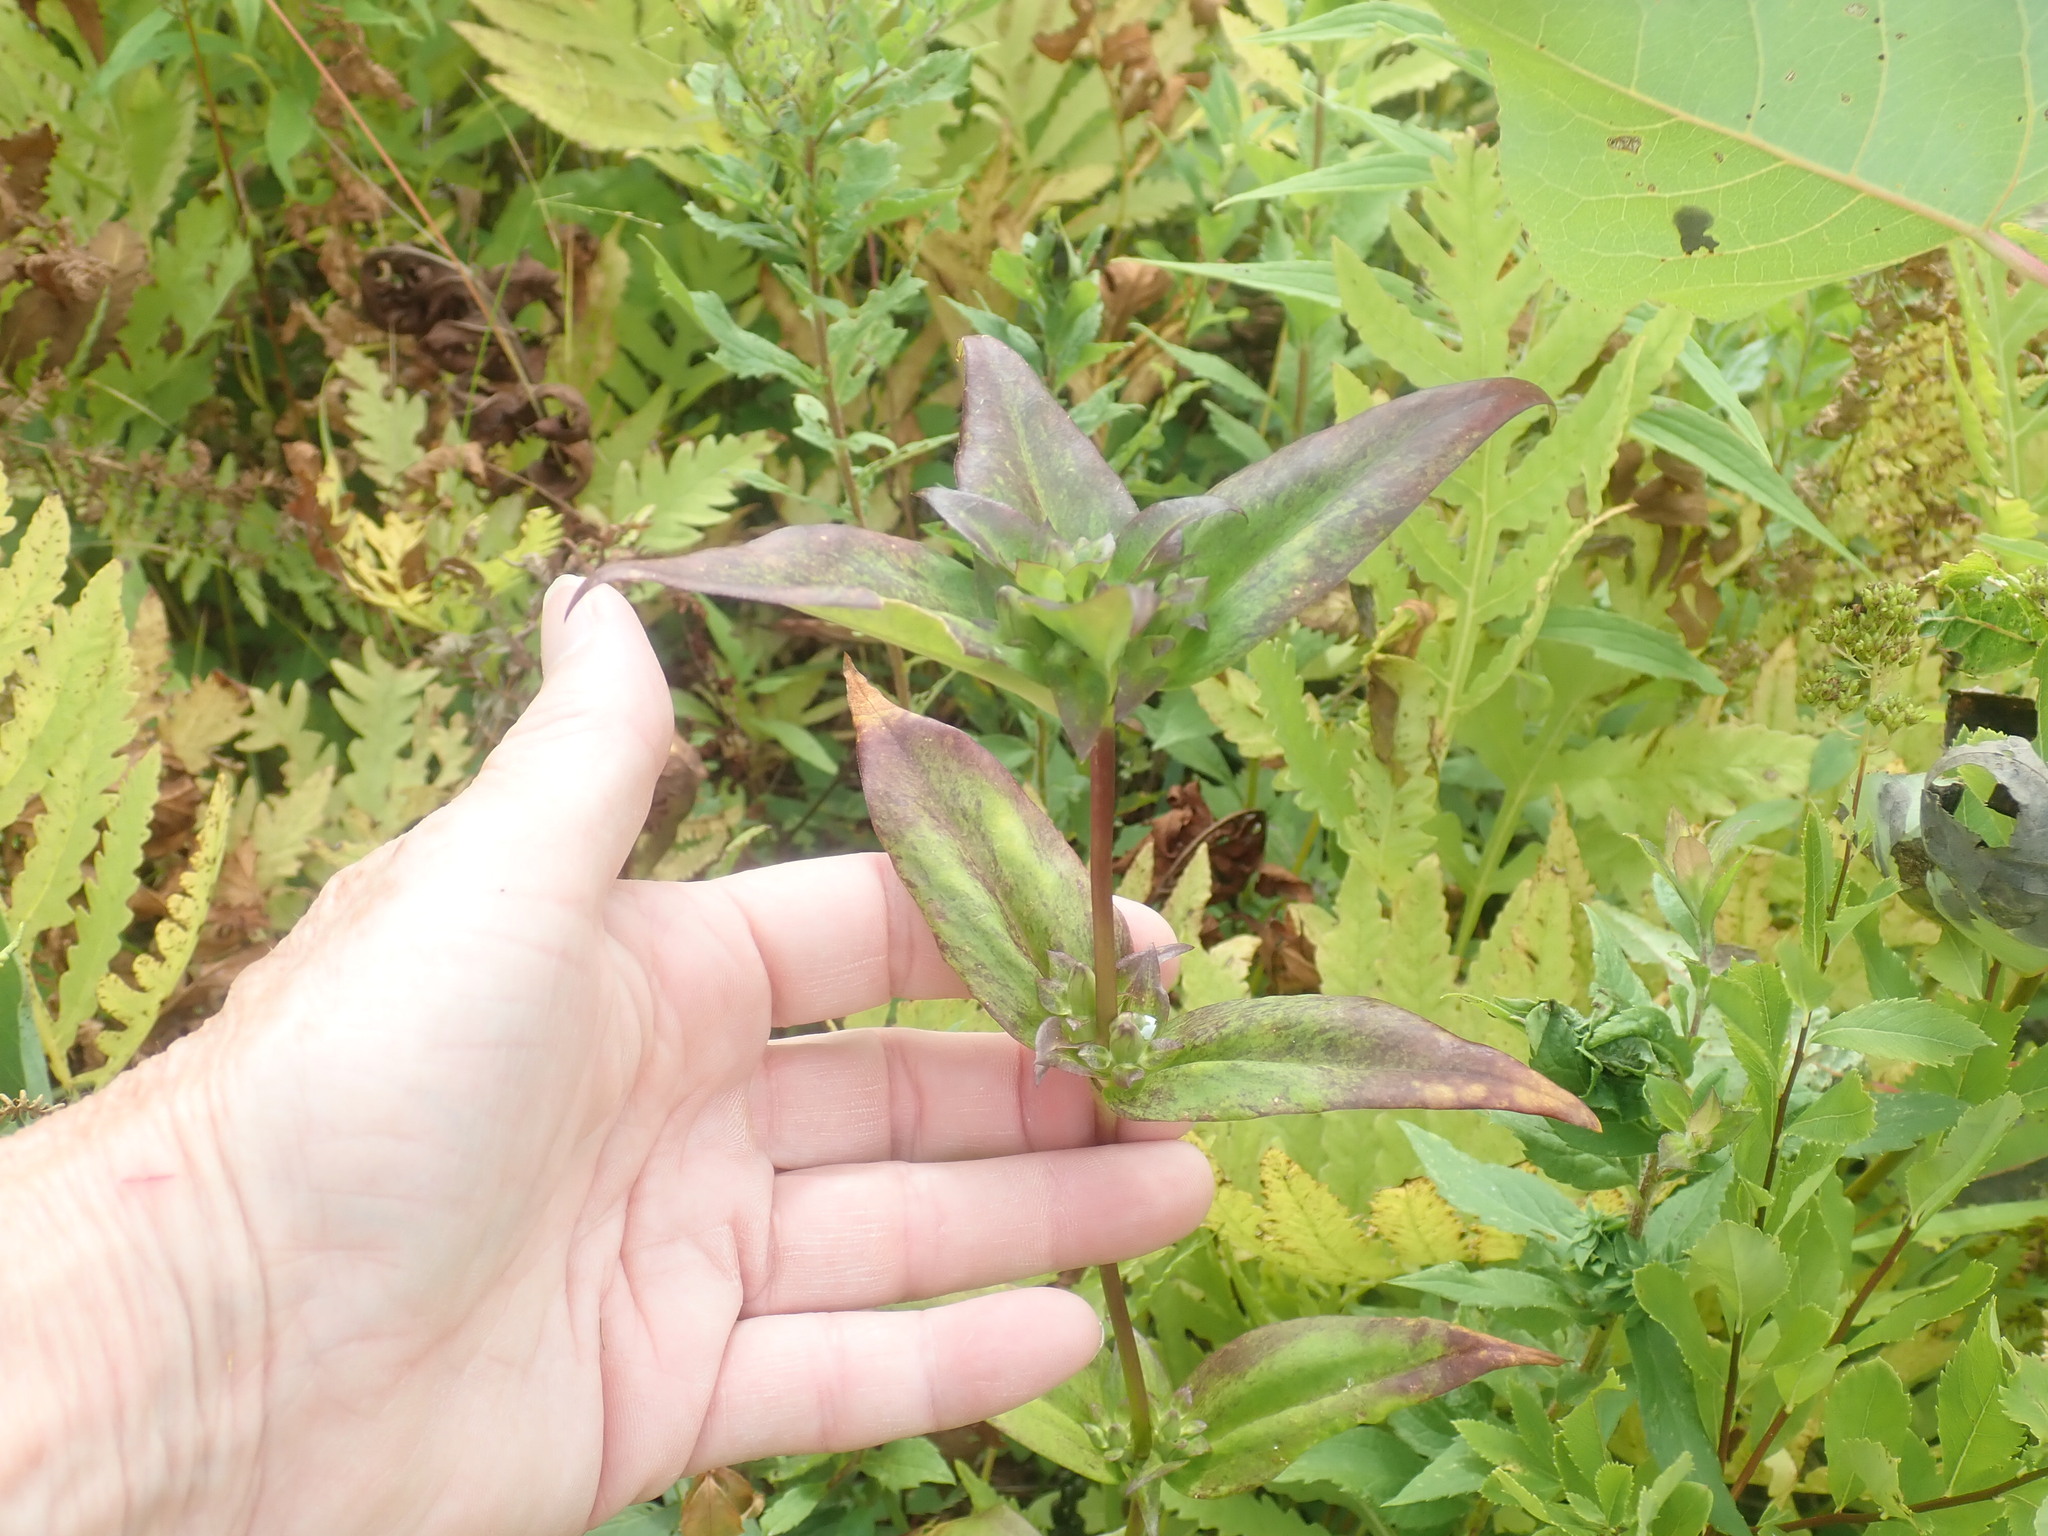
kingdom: Plantae
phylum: Tracheophyta
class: Magnoliopsida
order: Gentianales
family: Gentianaceae
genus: Gentiana
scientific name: Gentiana clausa
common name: Blind gentian
